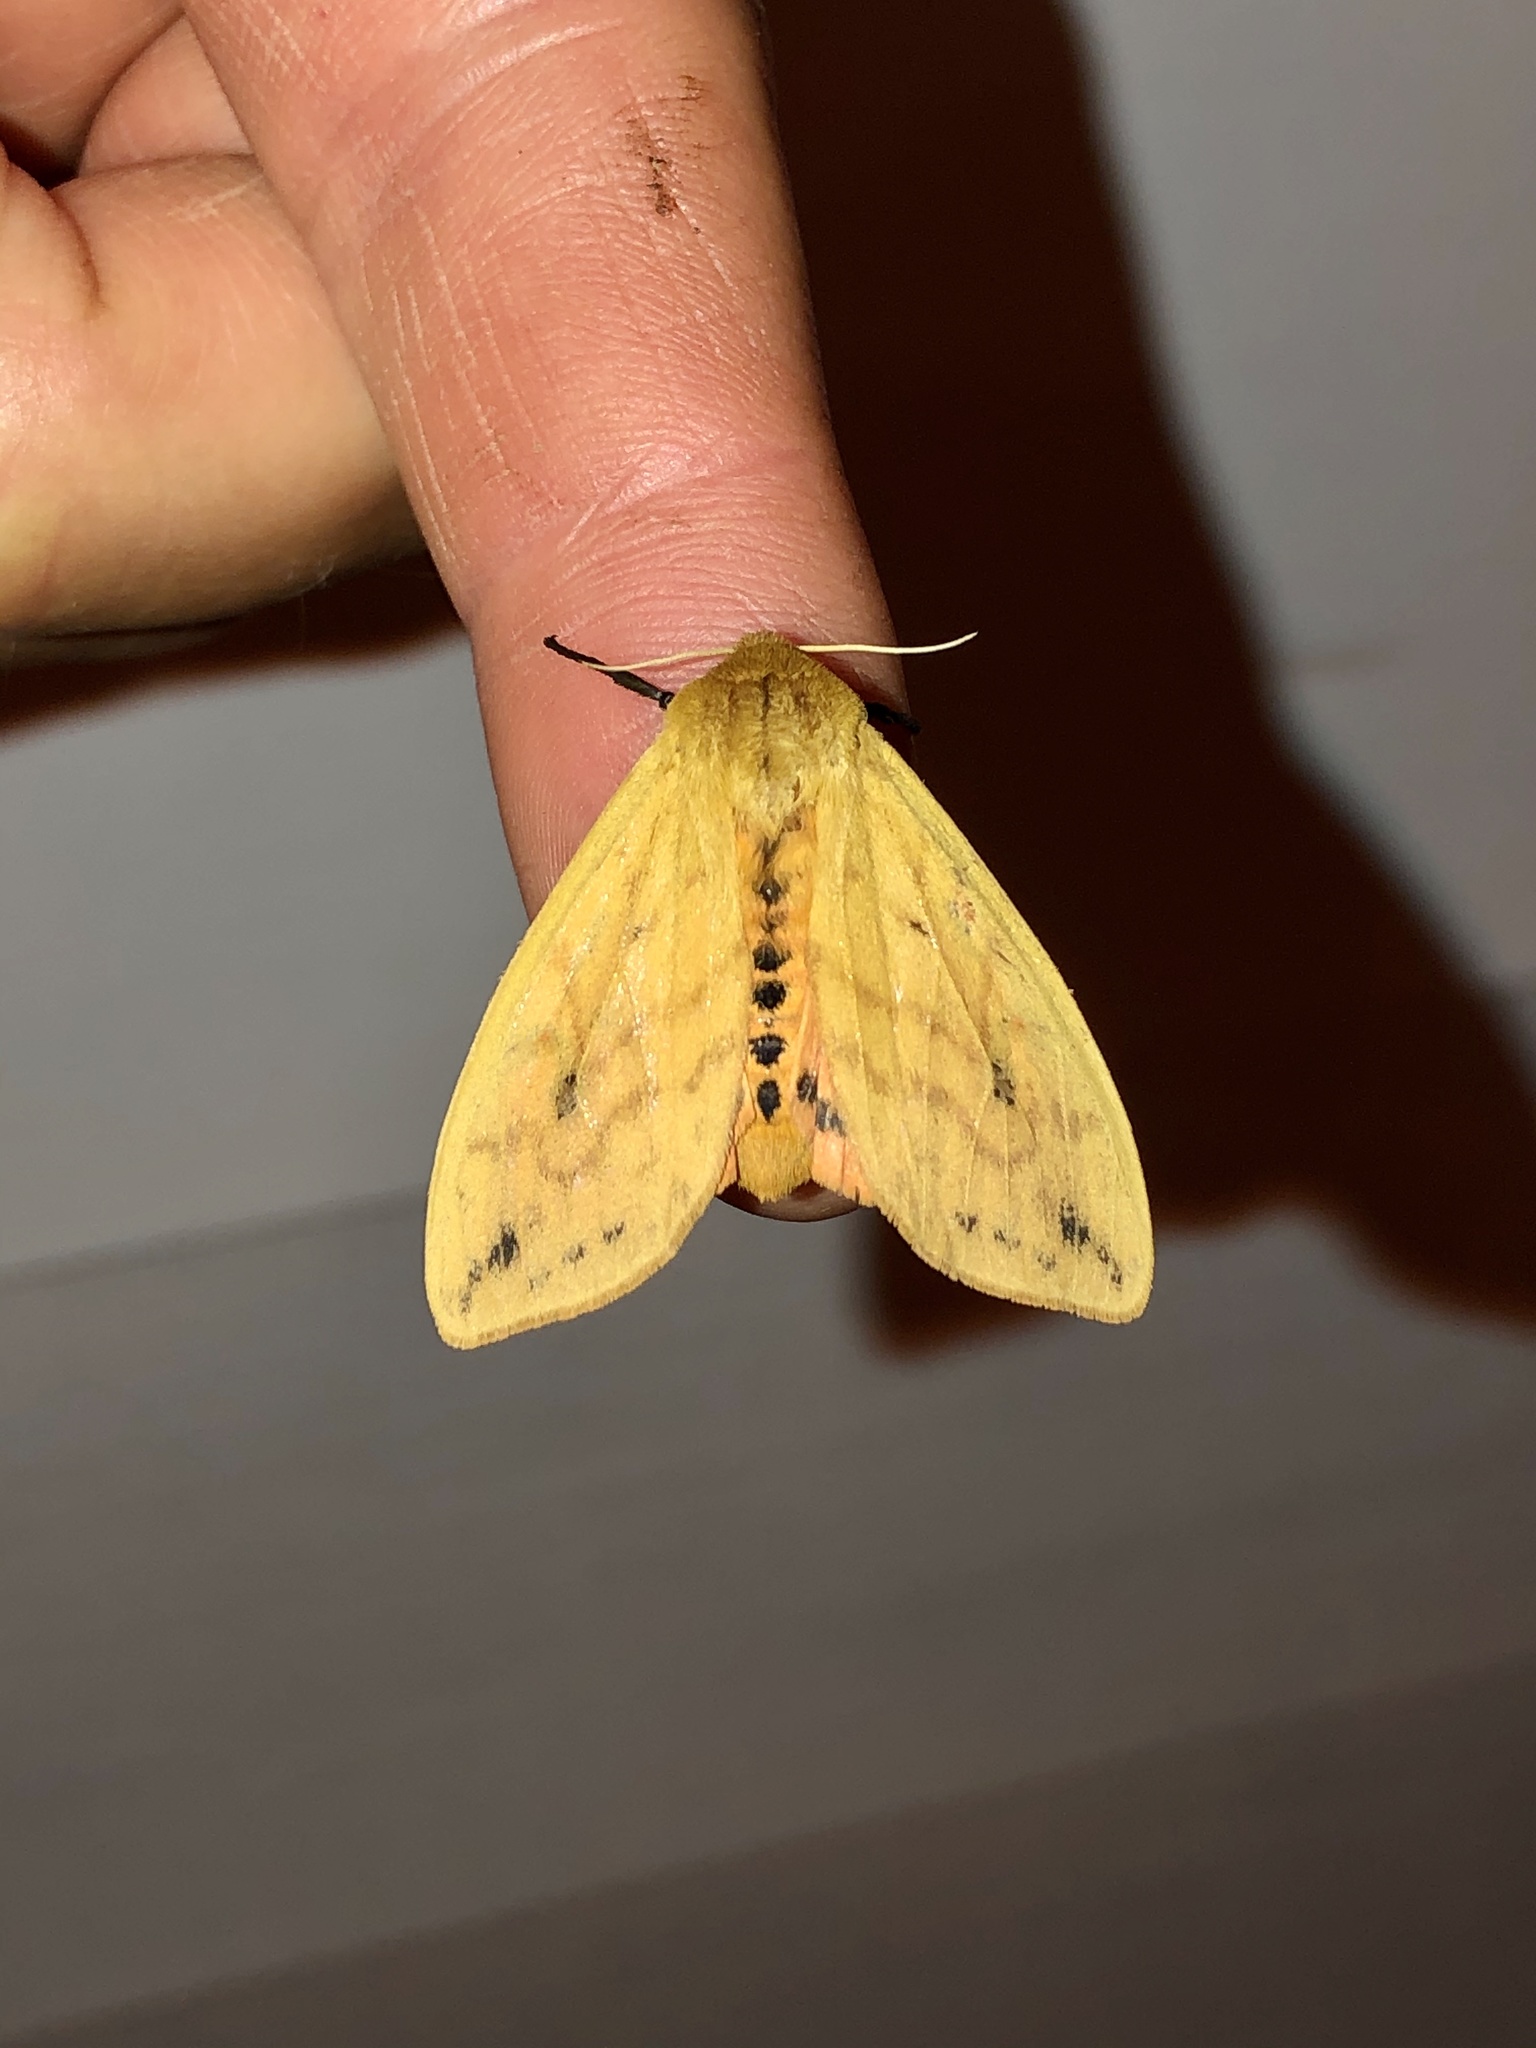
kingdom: Animalia
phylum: Arthropoda
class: Insecta
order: Lepidoptera
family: Erebidae
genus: Pyrrharctia
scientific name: Pyrrharctia isabella
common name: Isabella tiger moth
